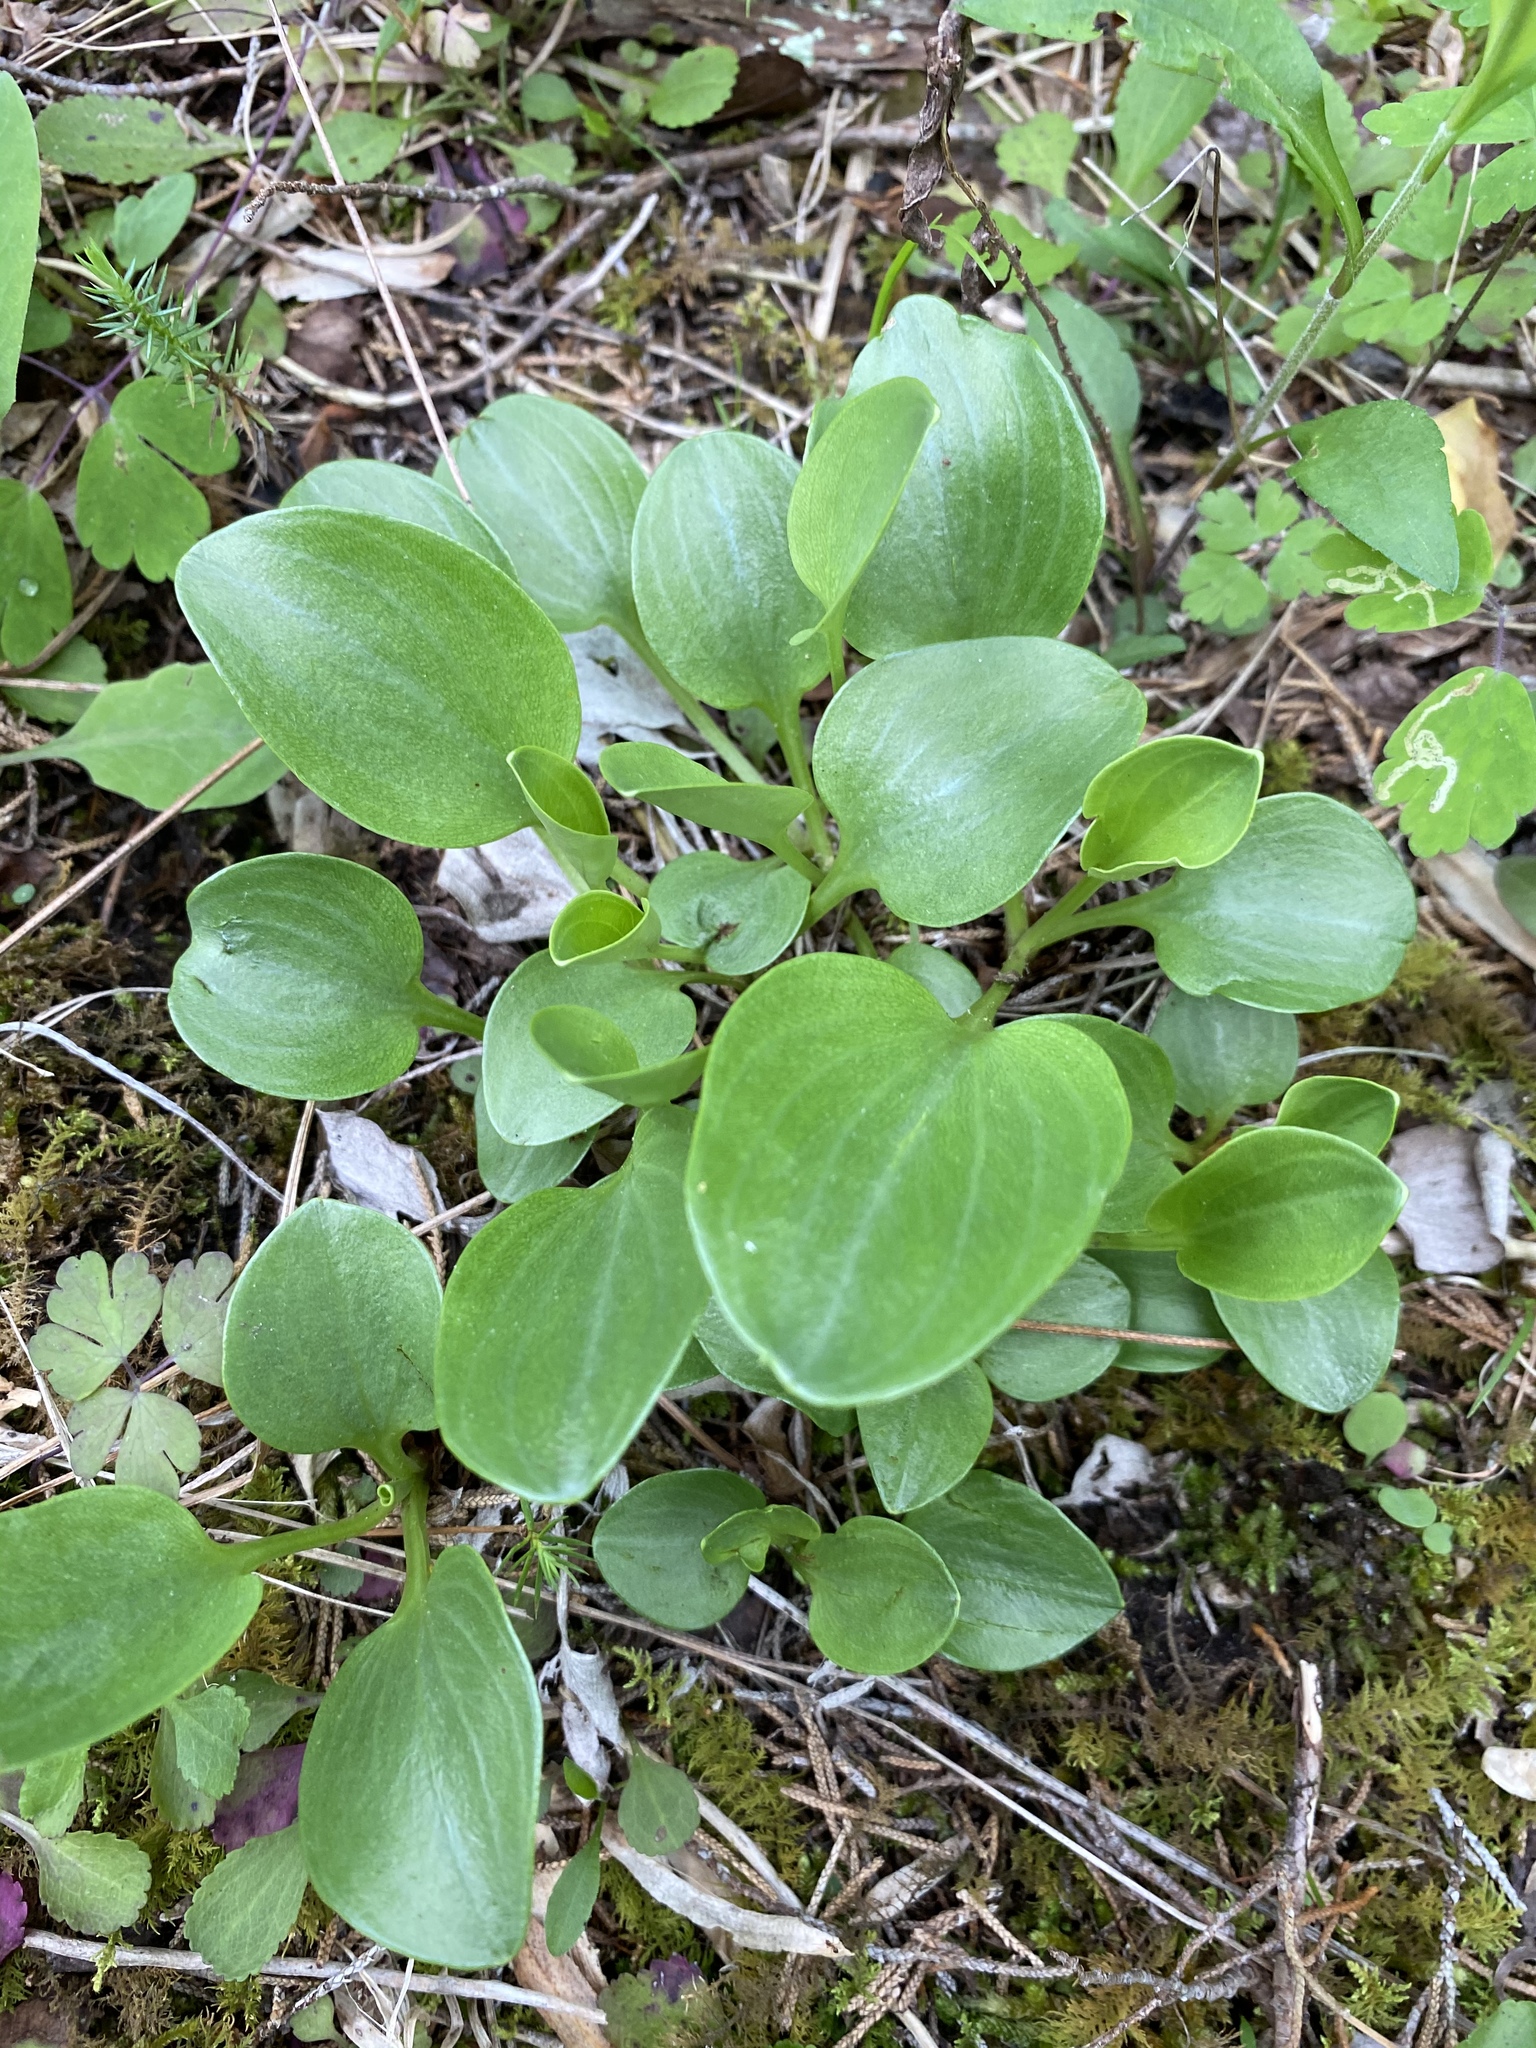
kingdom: Plantae
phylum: Tracheophyta
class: Magnoliopsida
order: Celastrales
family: Parnassiaceae
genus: Parnassia
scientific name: Parnassia glauca
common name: American grass-of-parnassus
